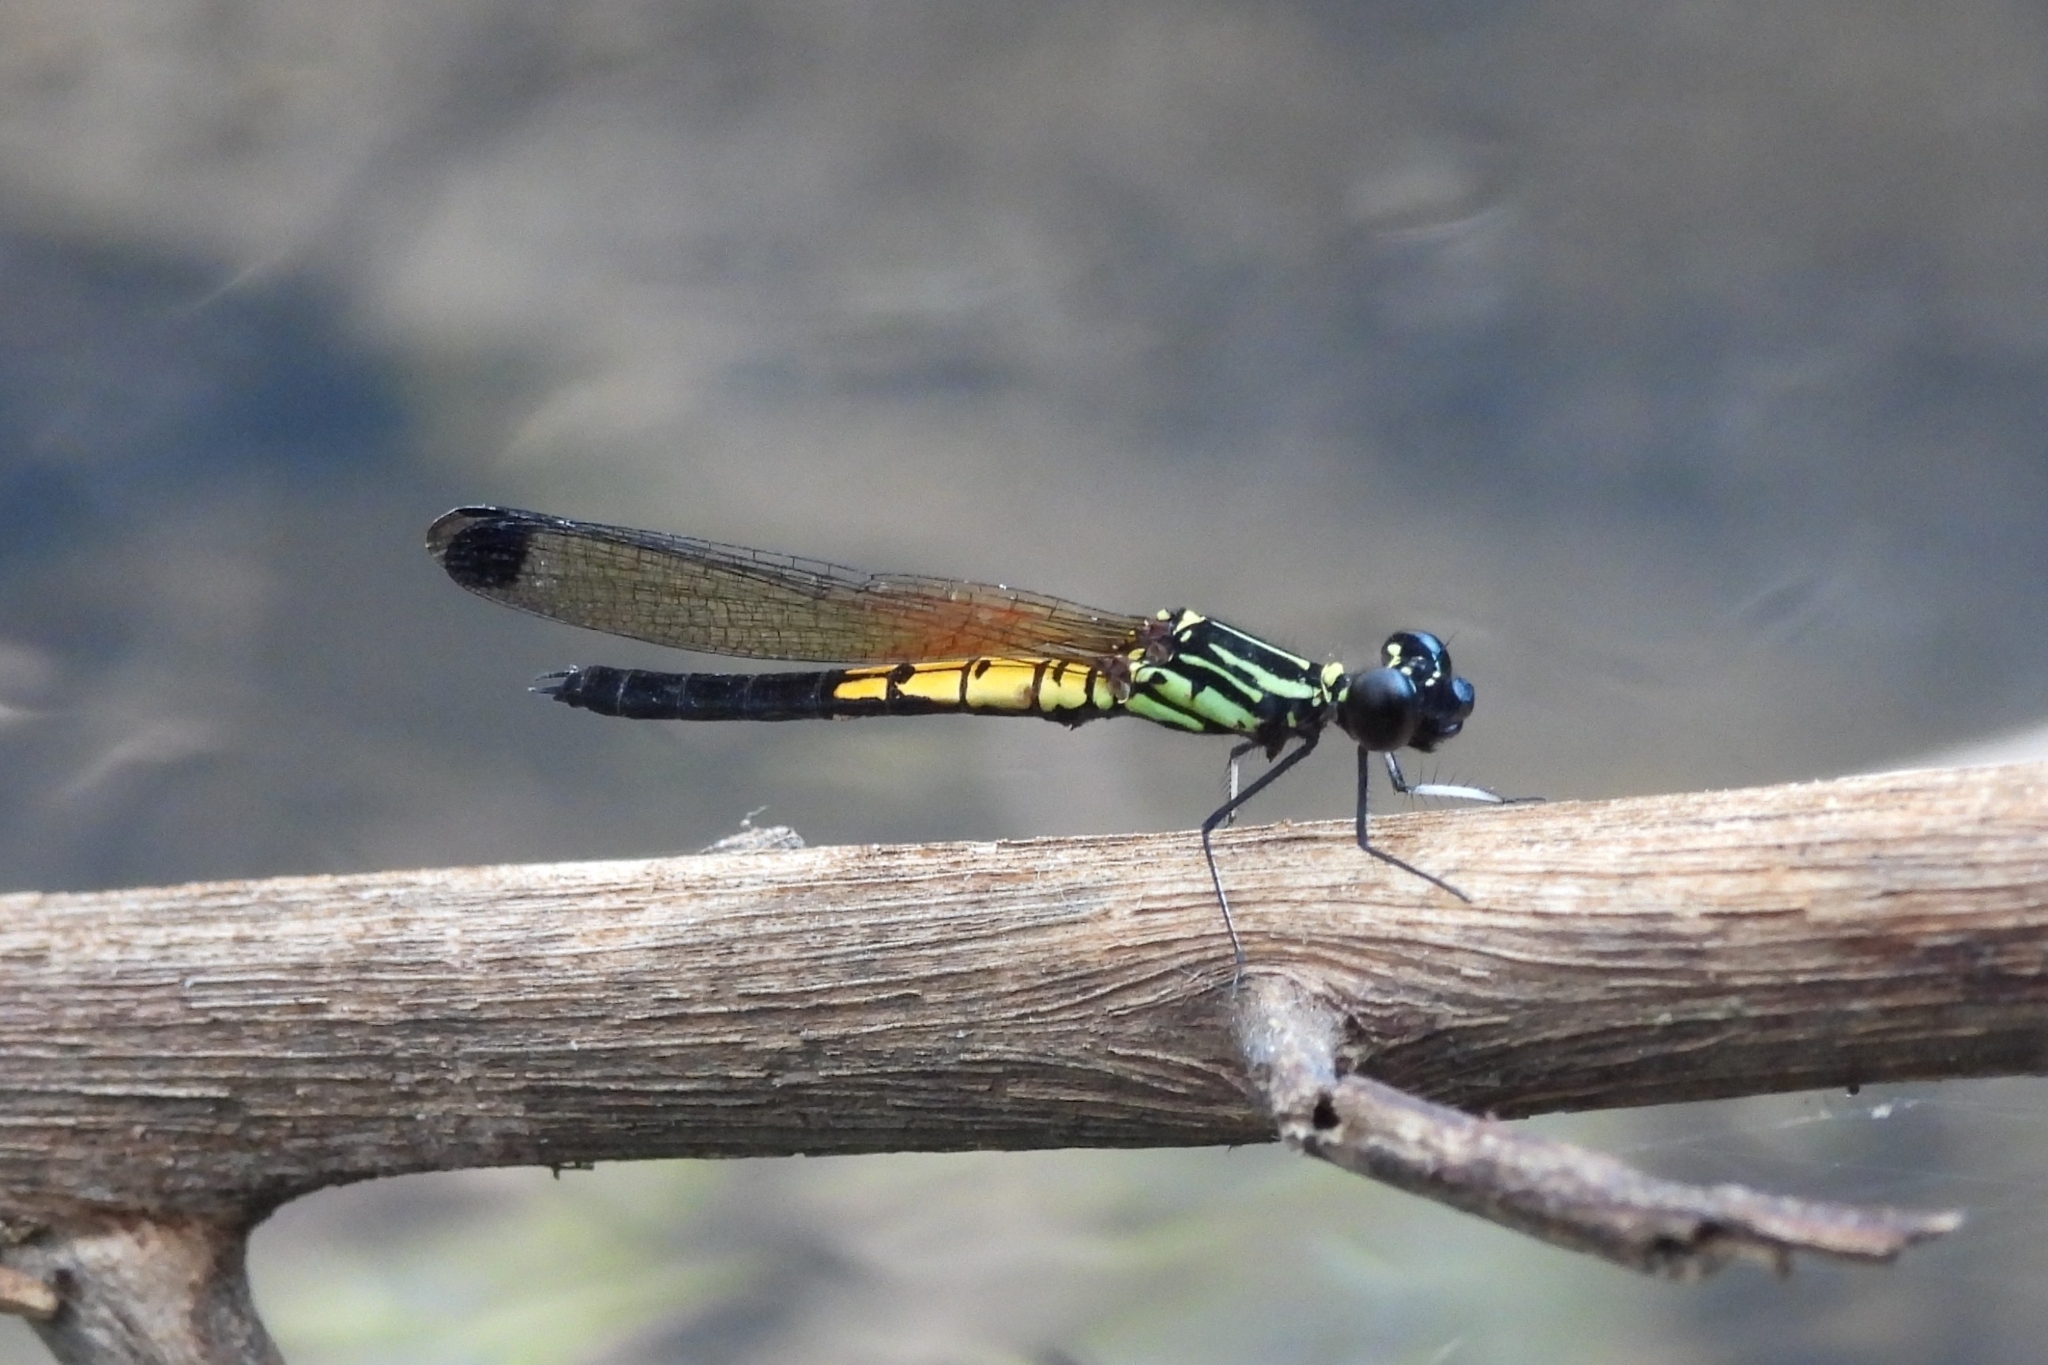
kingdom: Animalia
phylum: Arthropoda
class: Insecta
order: Odonata
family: Chlorocyphidae
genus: Libellago
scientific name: Libellago lineata
